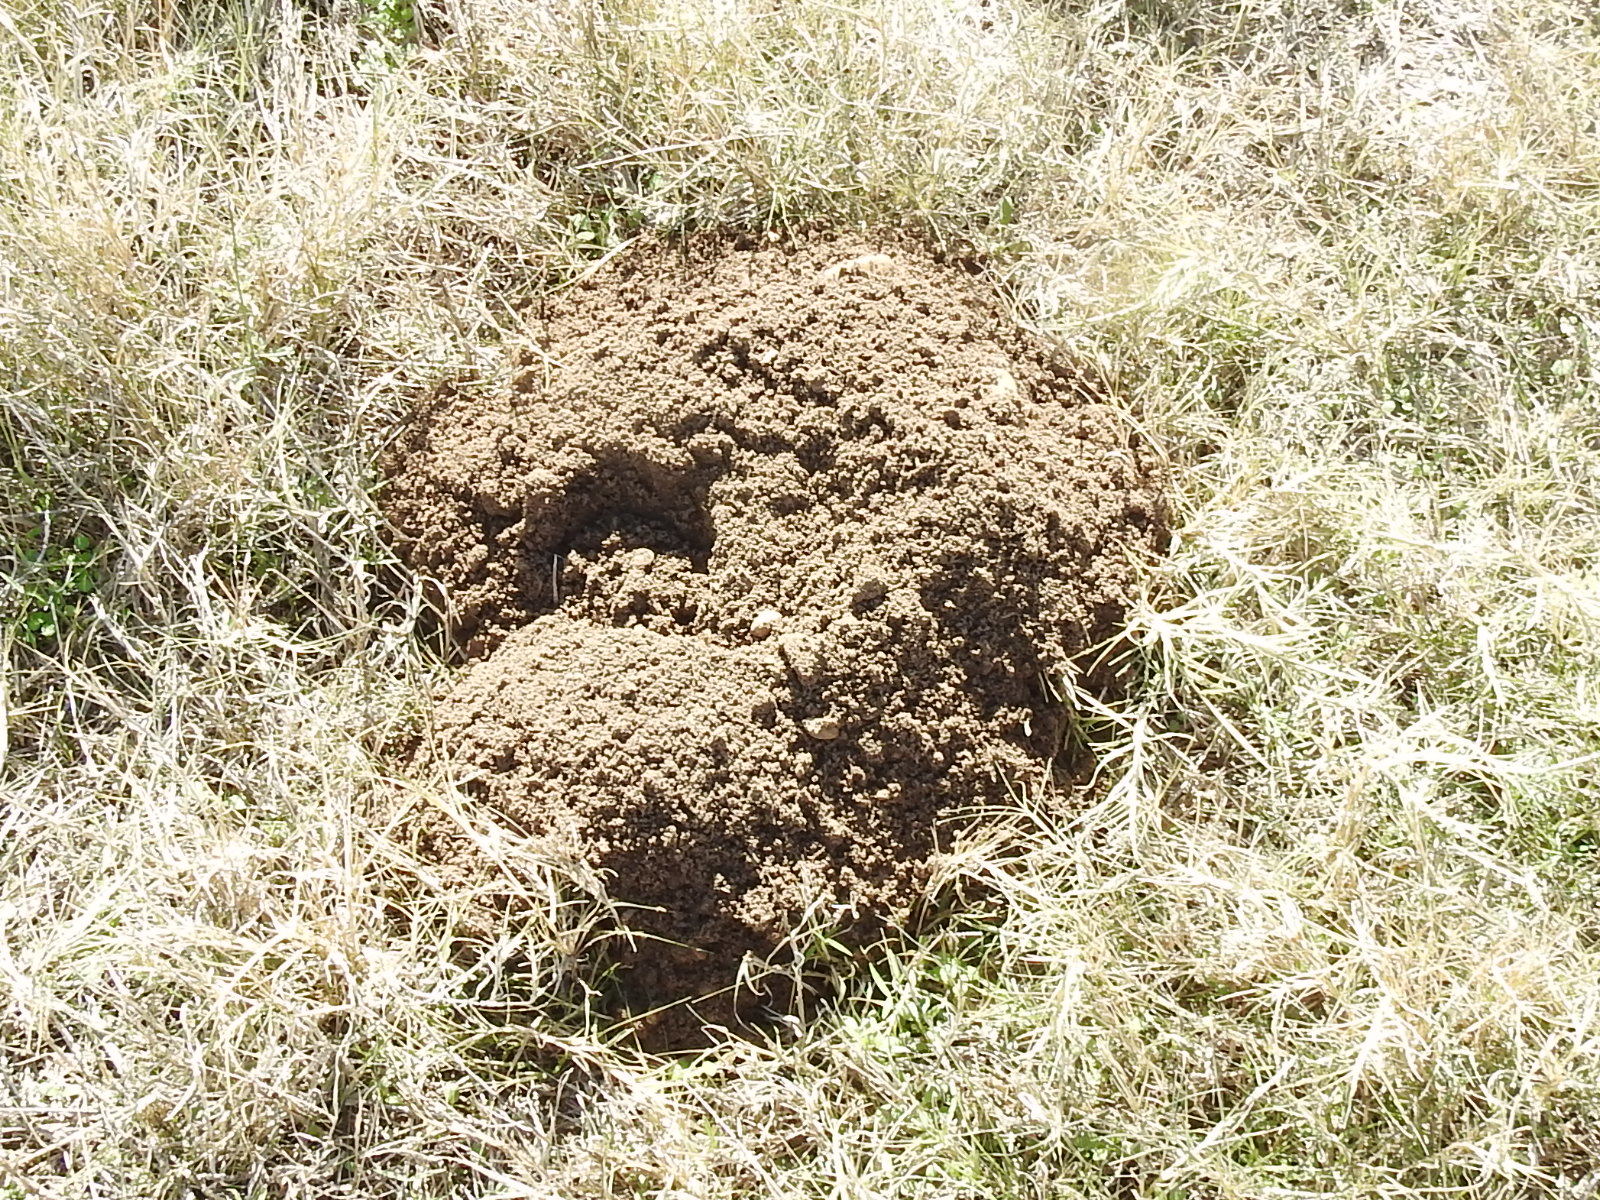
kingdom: Animalia
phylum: Chordata
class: Mammalia
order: Rodentia
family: Geomyidae
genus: Geomys
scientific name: Geomys bursarius
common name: Plains pocket gopher
